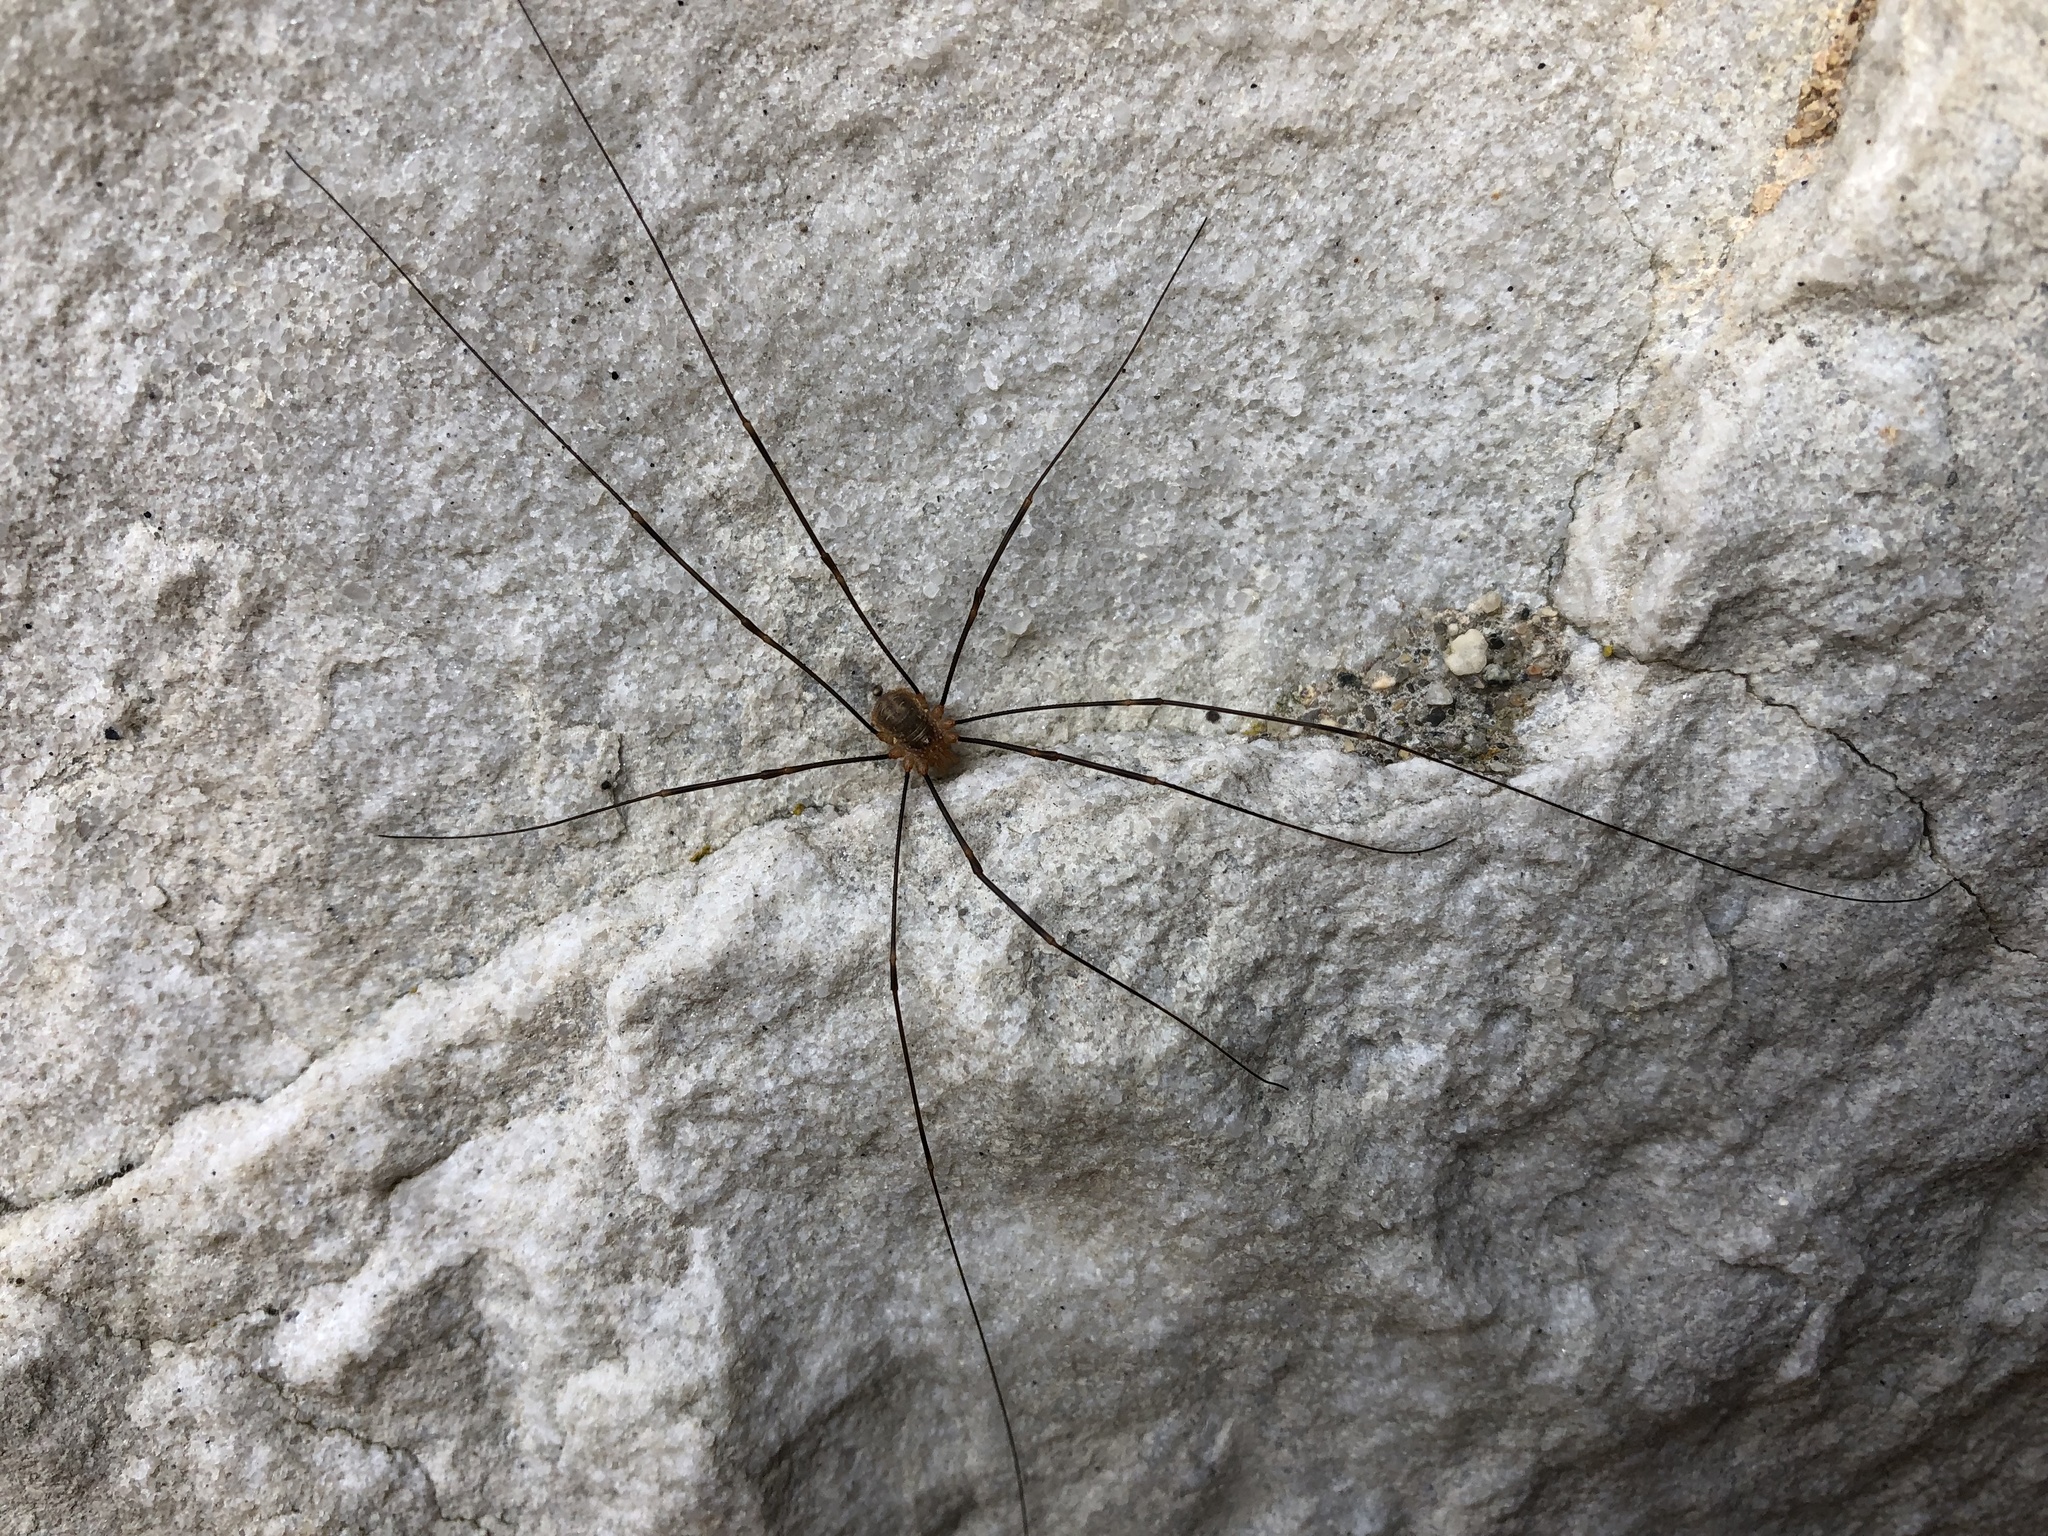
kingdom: Animalia
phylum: Arthropoda
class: Arachnida
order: Opiliones
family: Phalangiidae
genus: Opilio
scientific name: Opilio canestrinii
